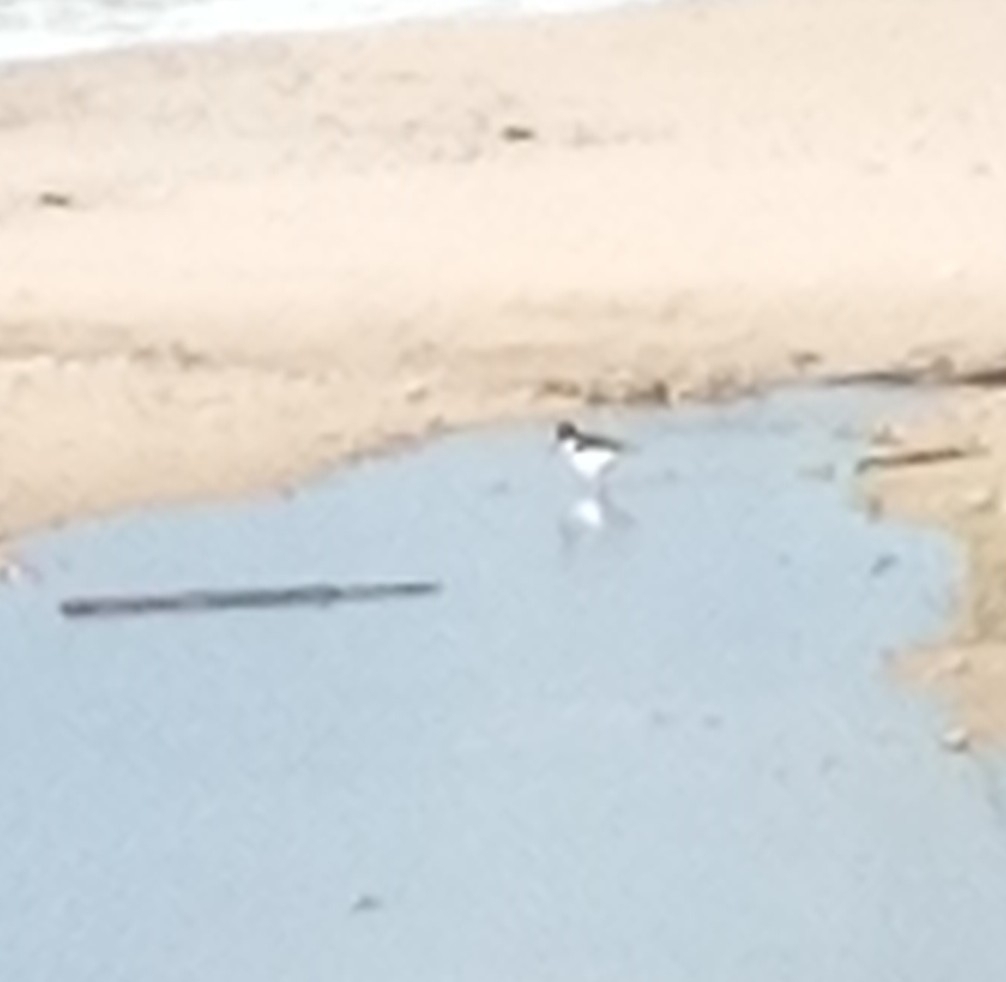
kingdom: Animalia
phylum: Chordata
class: Aves
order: Charadriiformes
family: Haematopodidae
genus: Haematopus
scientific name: Haematopus ostralegus
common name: Eurasian oystercatcher
